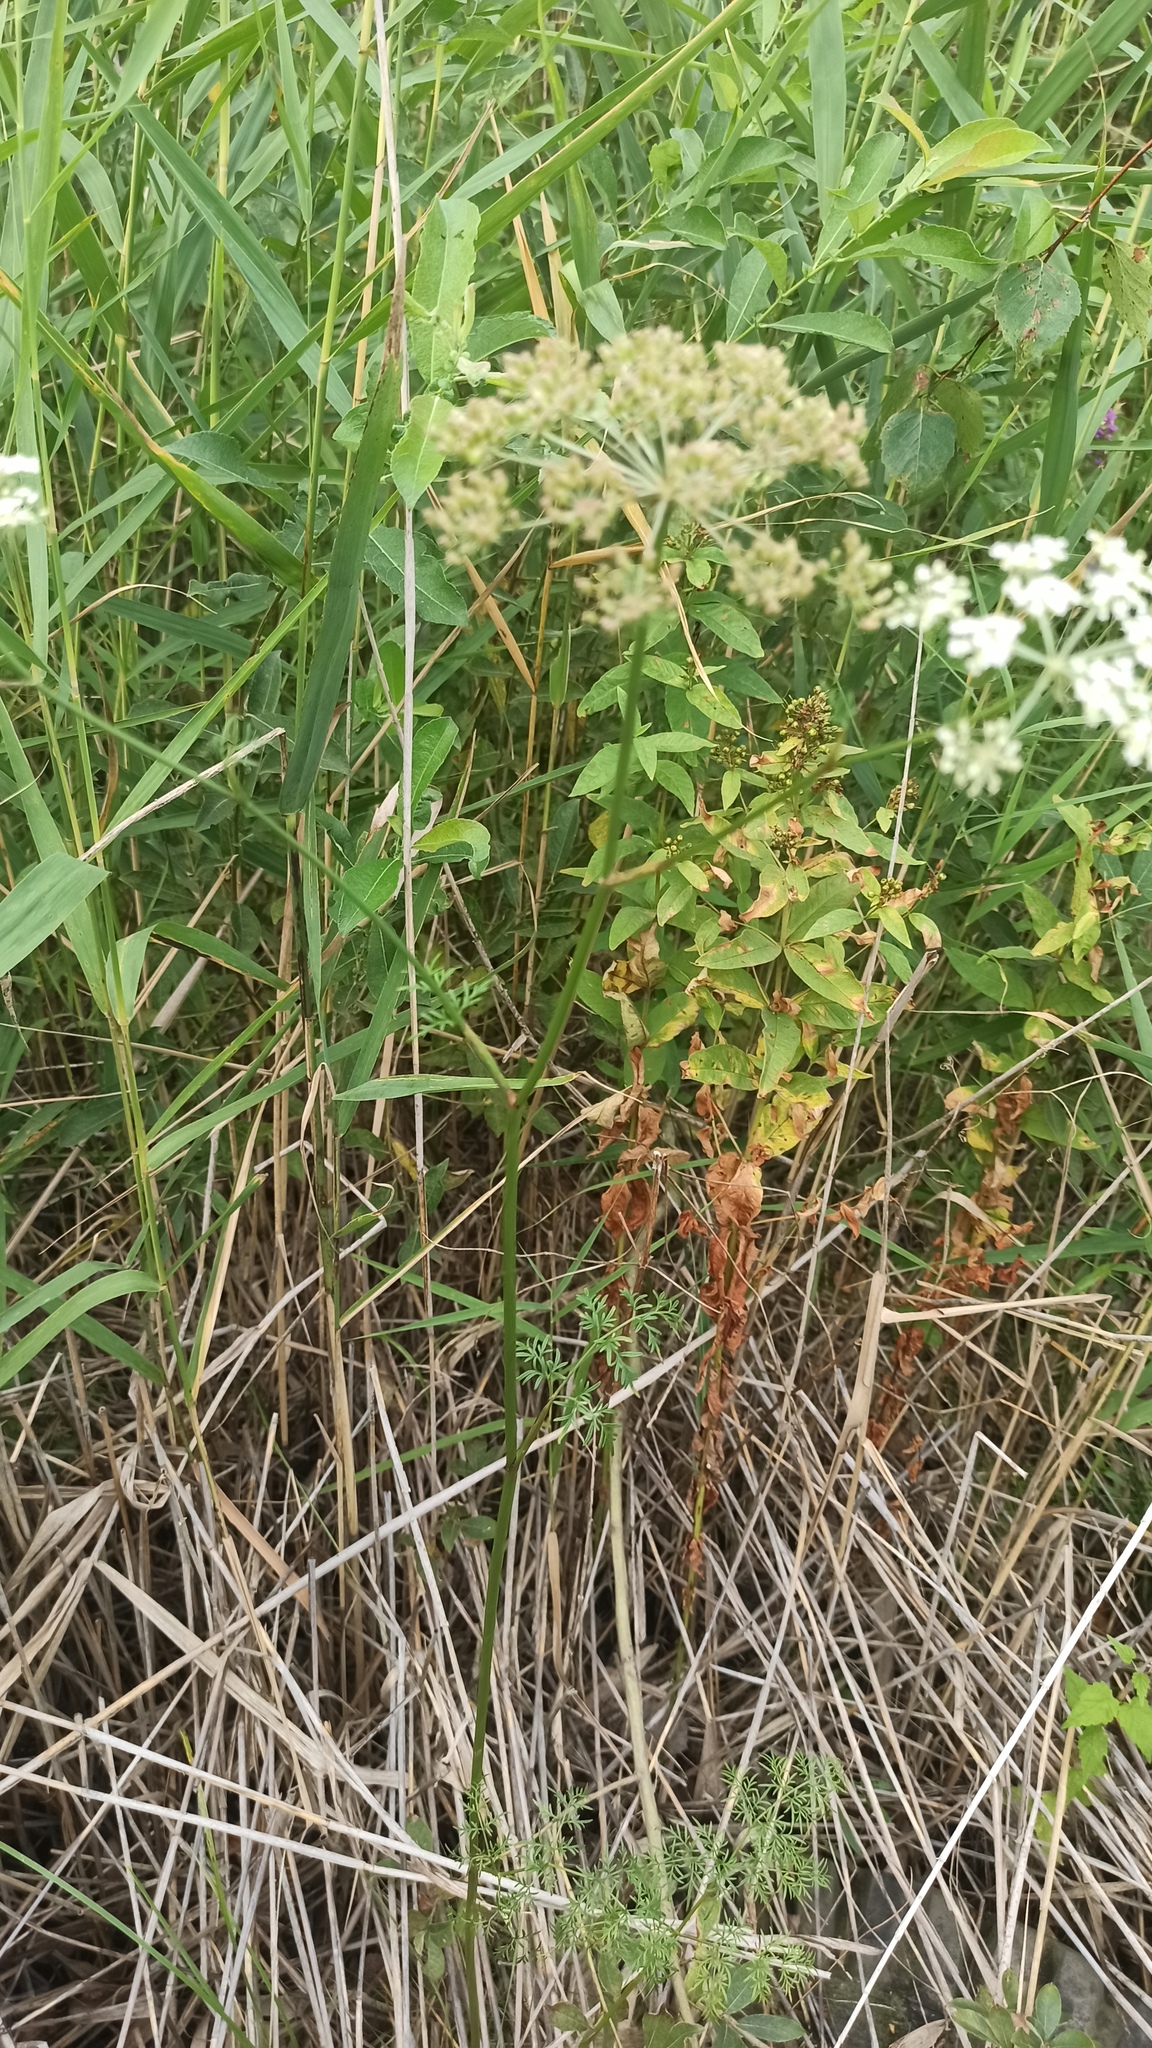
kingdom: Plantae
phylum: Tracheophyta
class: Magnoliopsida
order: Apiales
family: Apiaceae
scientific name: Apiaceae
